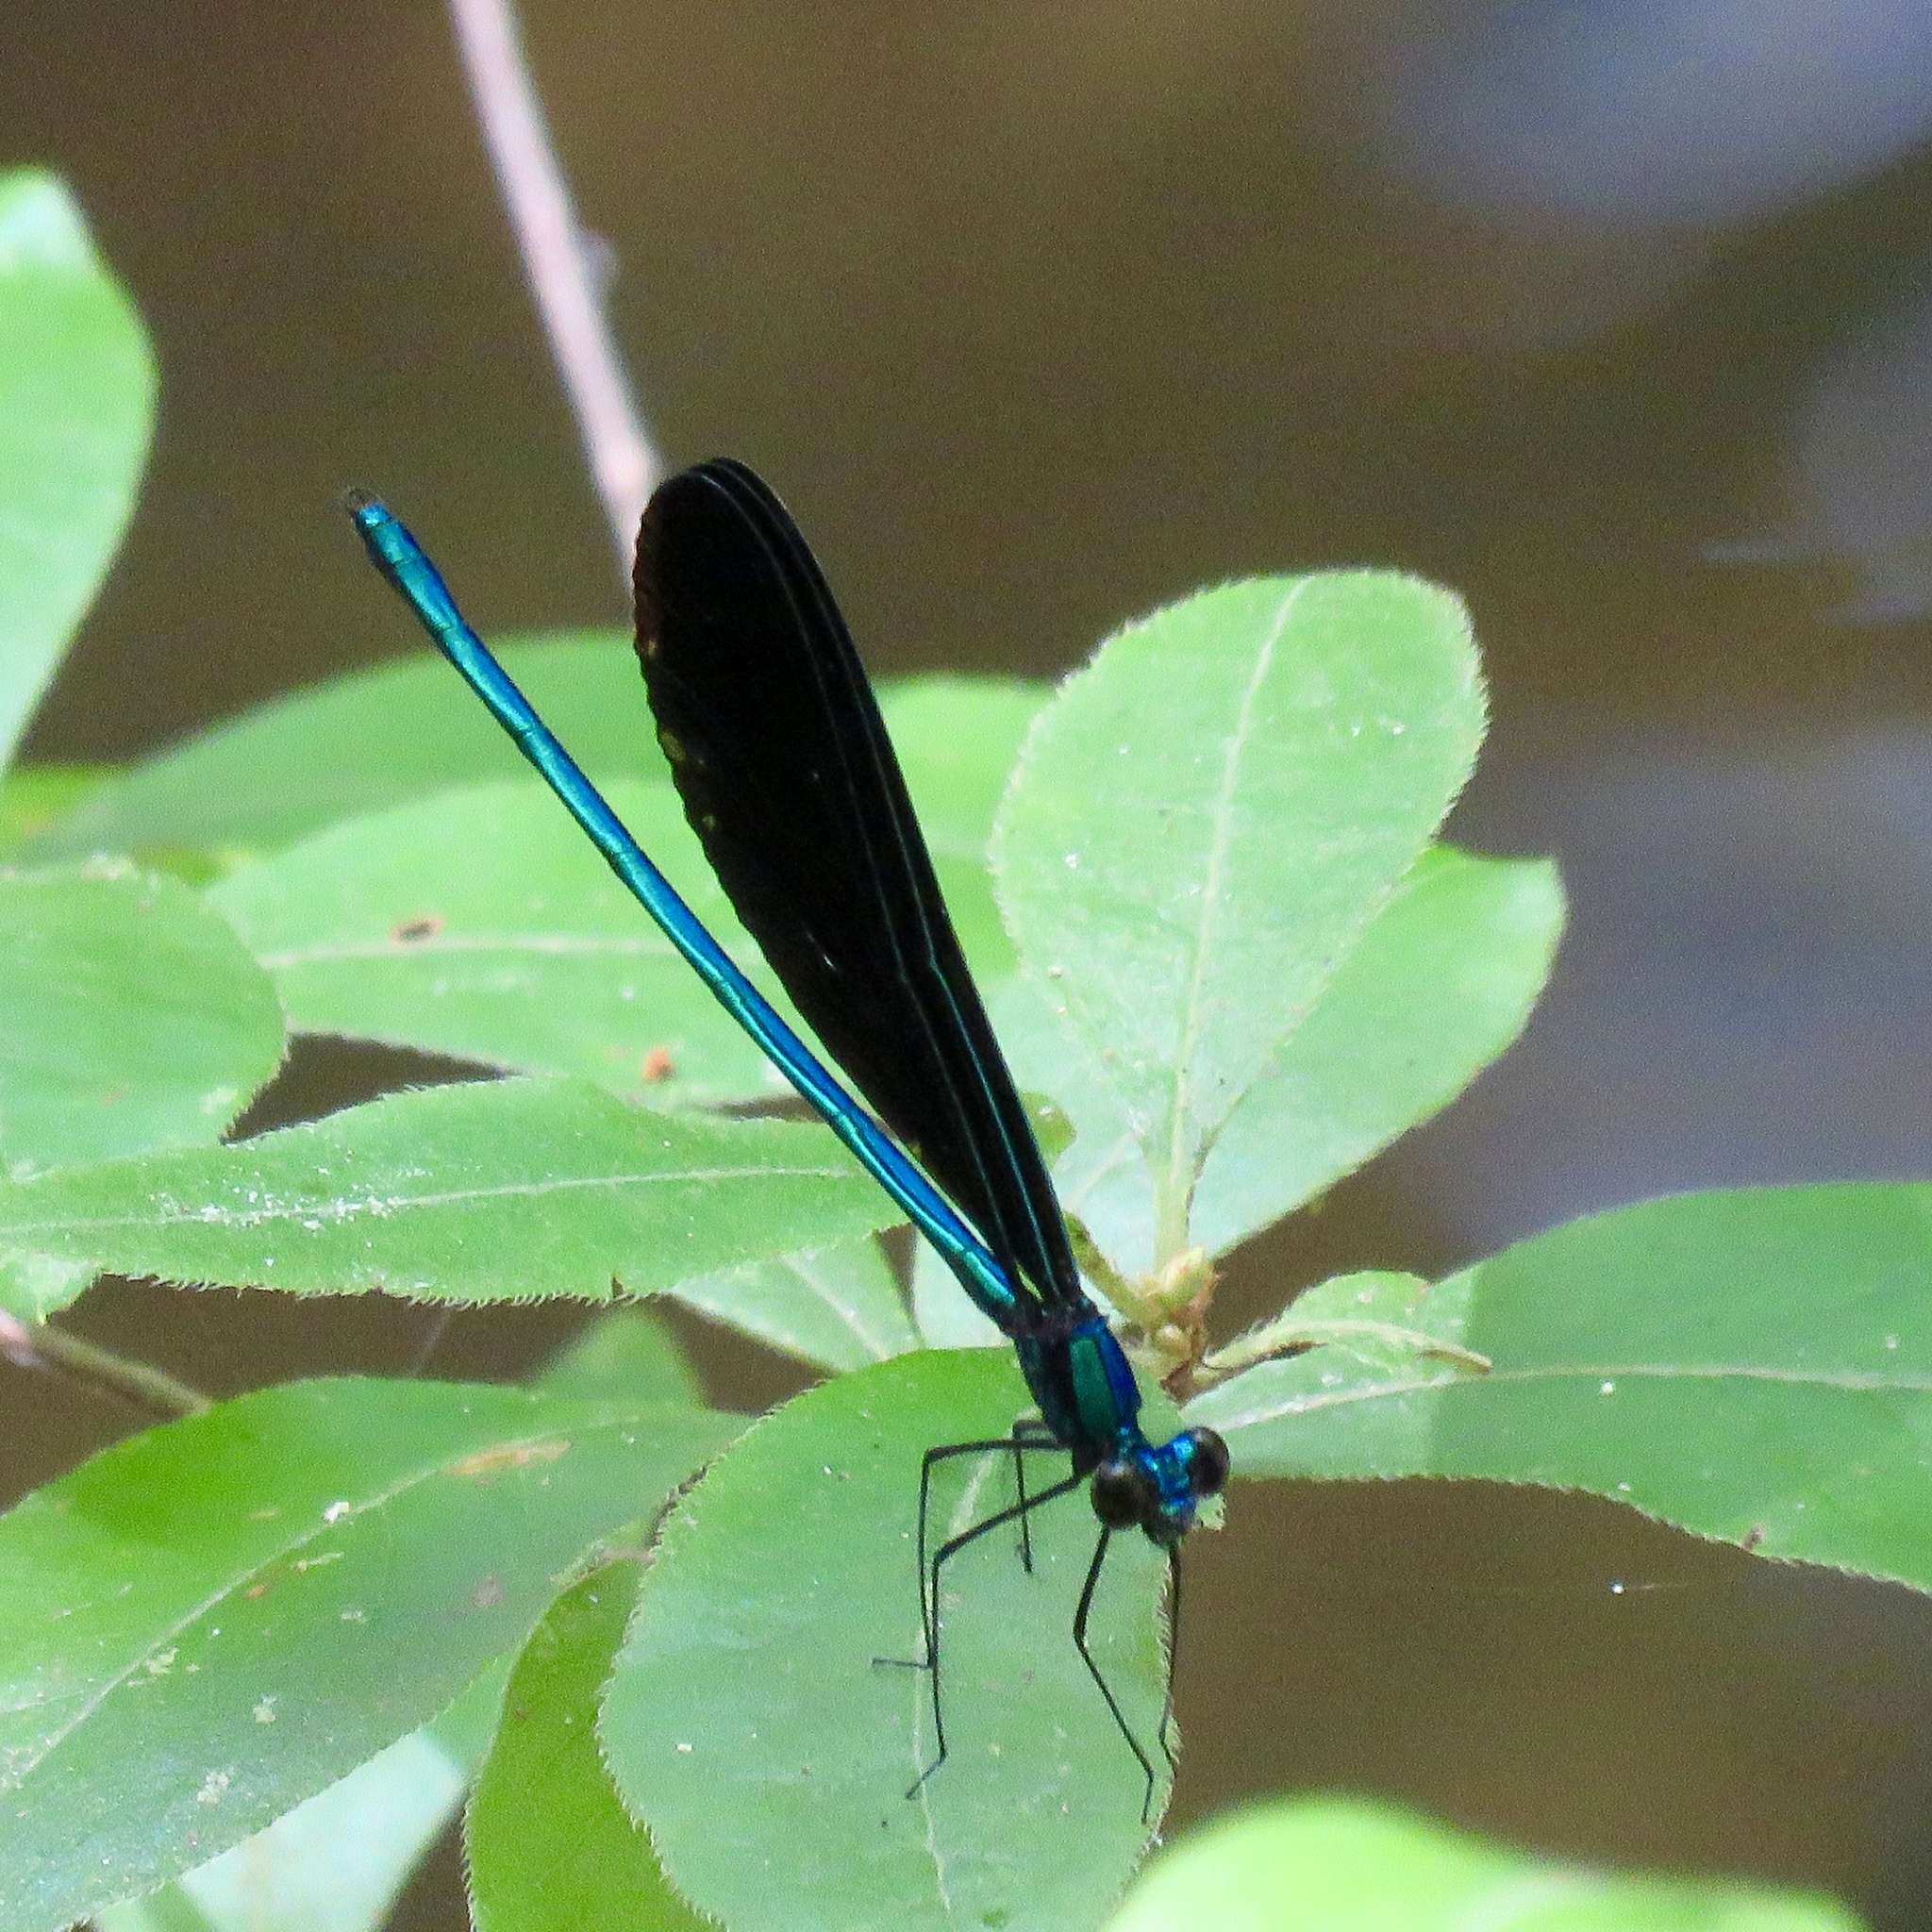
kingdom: Animalia
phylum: Arthropoda
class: Insecta
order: Odonata
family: Calopterygidae
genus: Calopteryx
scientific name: Calopteryx maculata
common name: Ebony jewelwing
